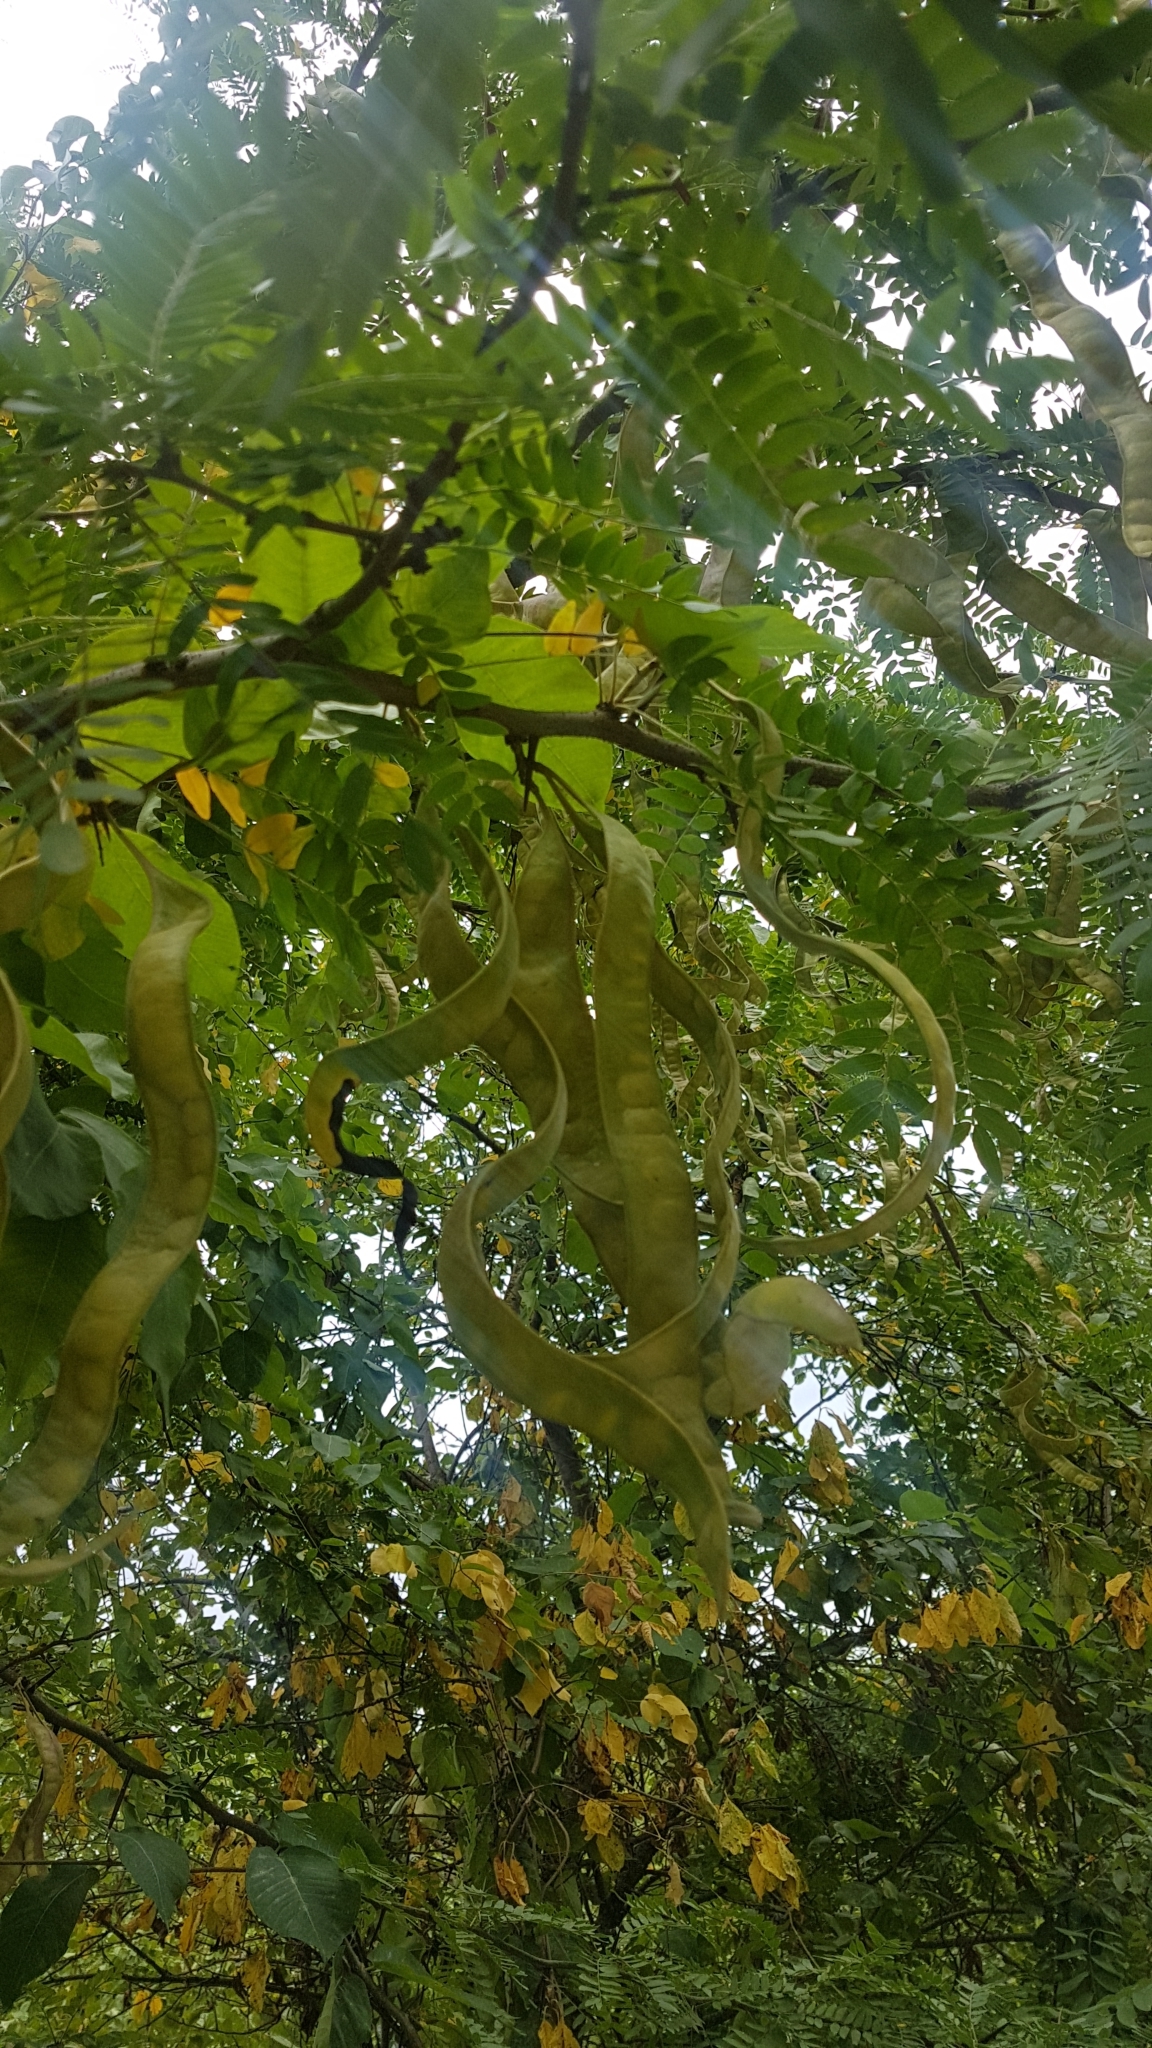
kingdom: Plantae
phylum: Tracheophyta
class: Magnoliopsida
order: Fabales
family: Fabaceae
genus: Gleditsia
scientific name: Gleditsia triacanthos
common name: Common honeylocust
